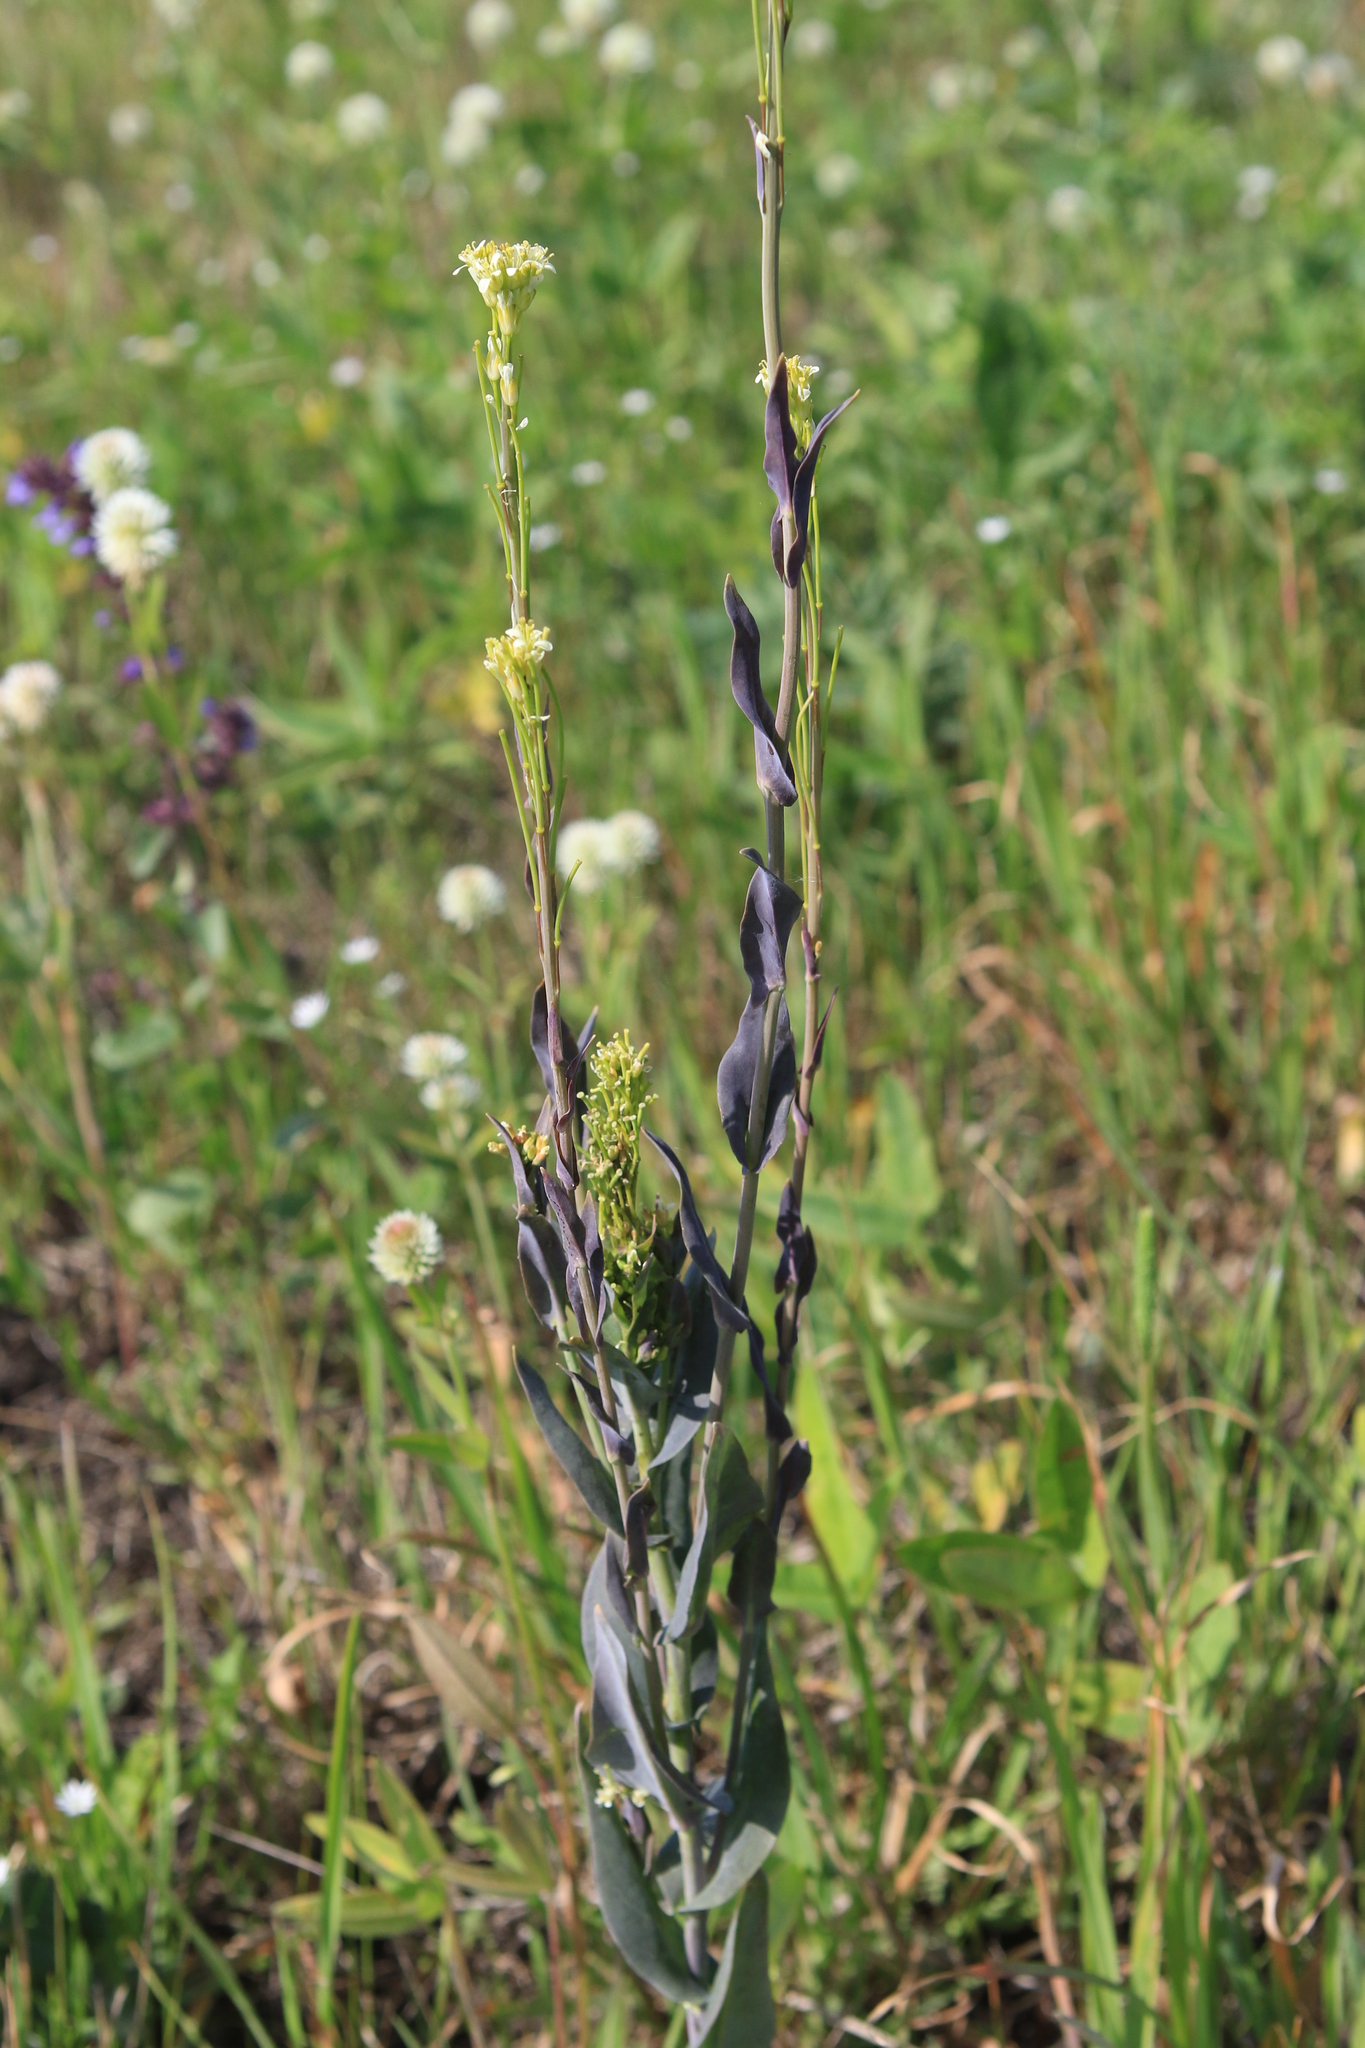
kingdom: Plantae
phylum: Tracheophyta
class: Magnoliopsida
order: Brassicales
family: Brassicaceae
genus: Turritis
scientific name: Turritis glabra
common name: Tower rockcress
